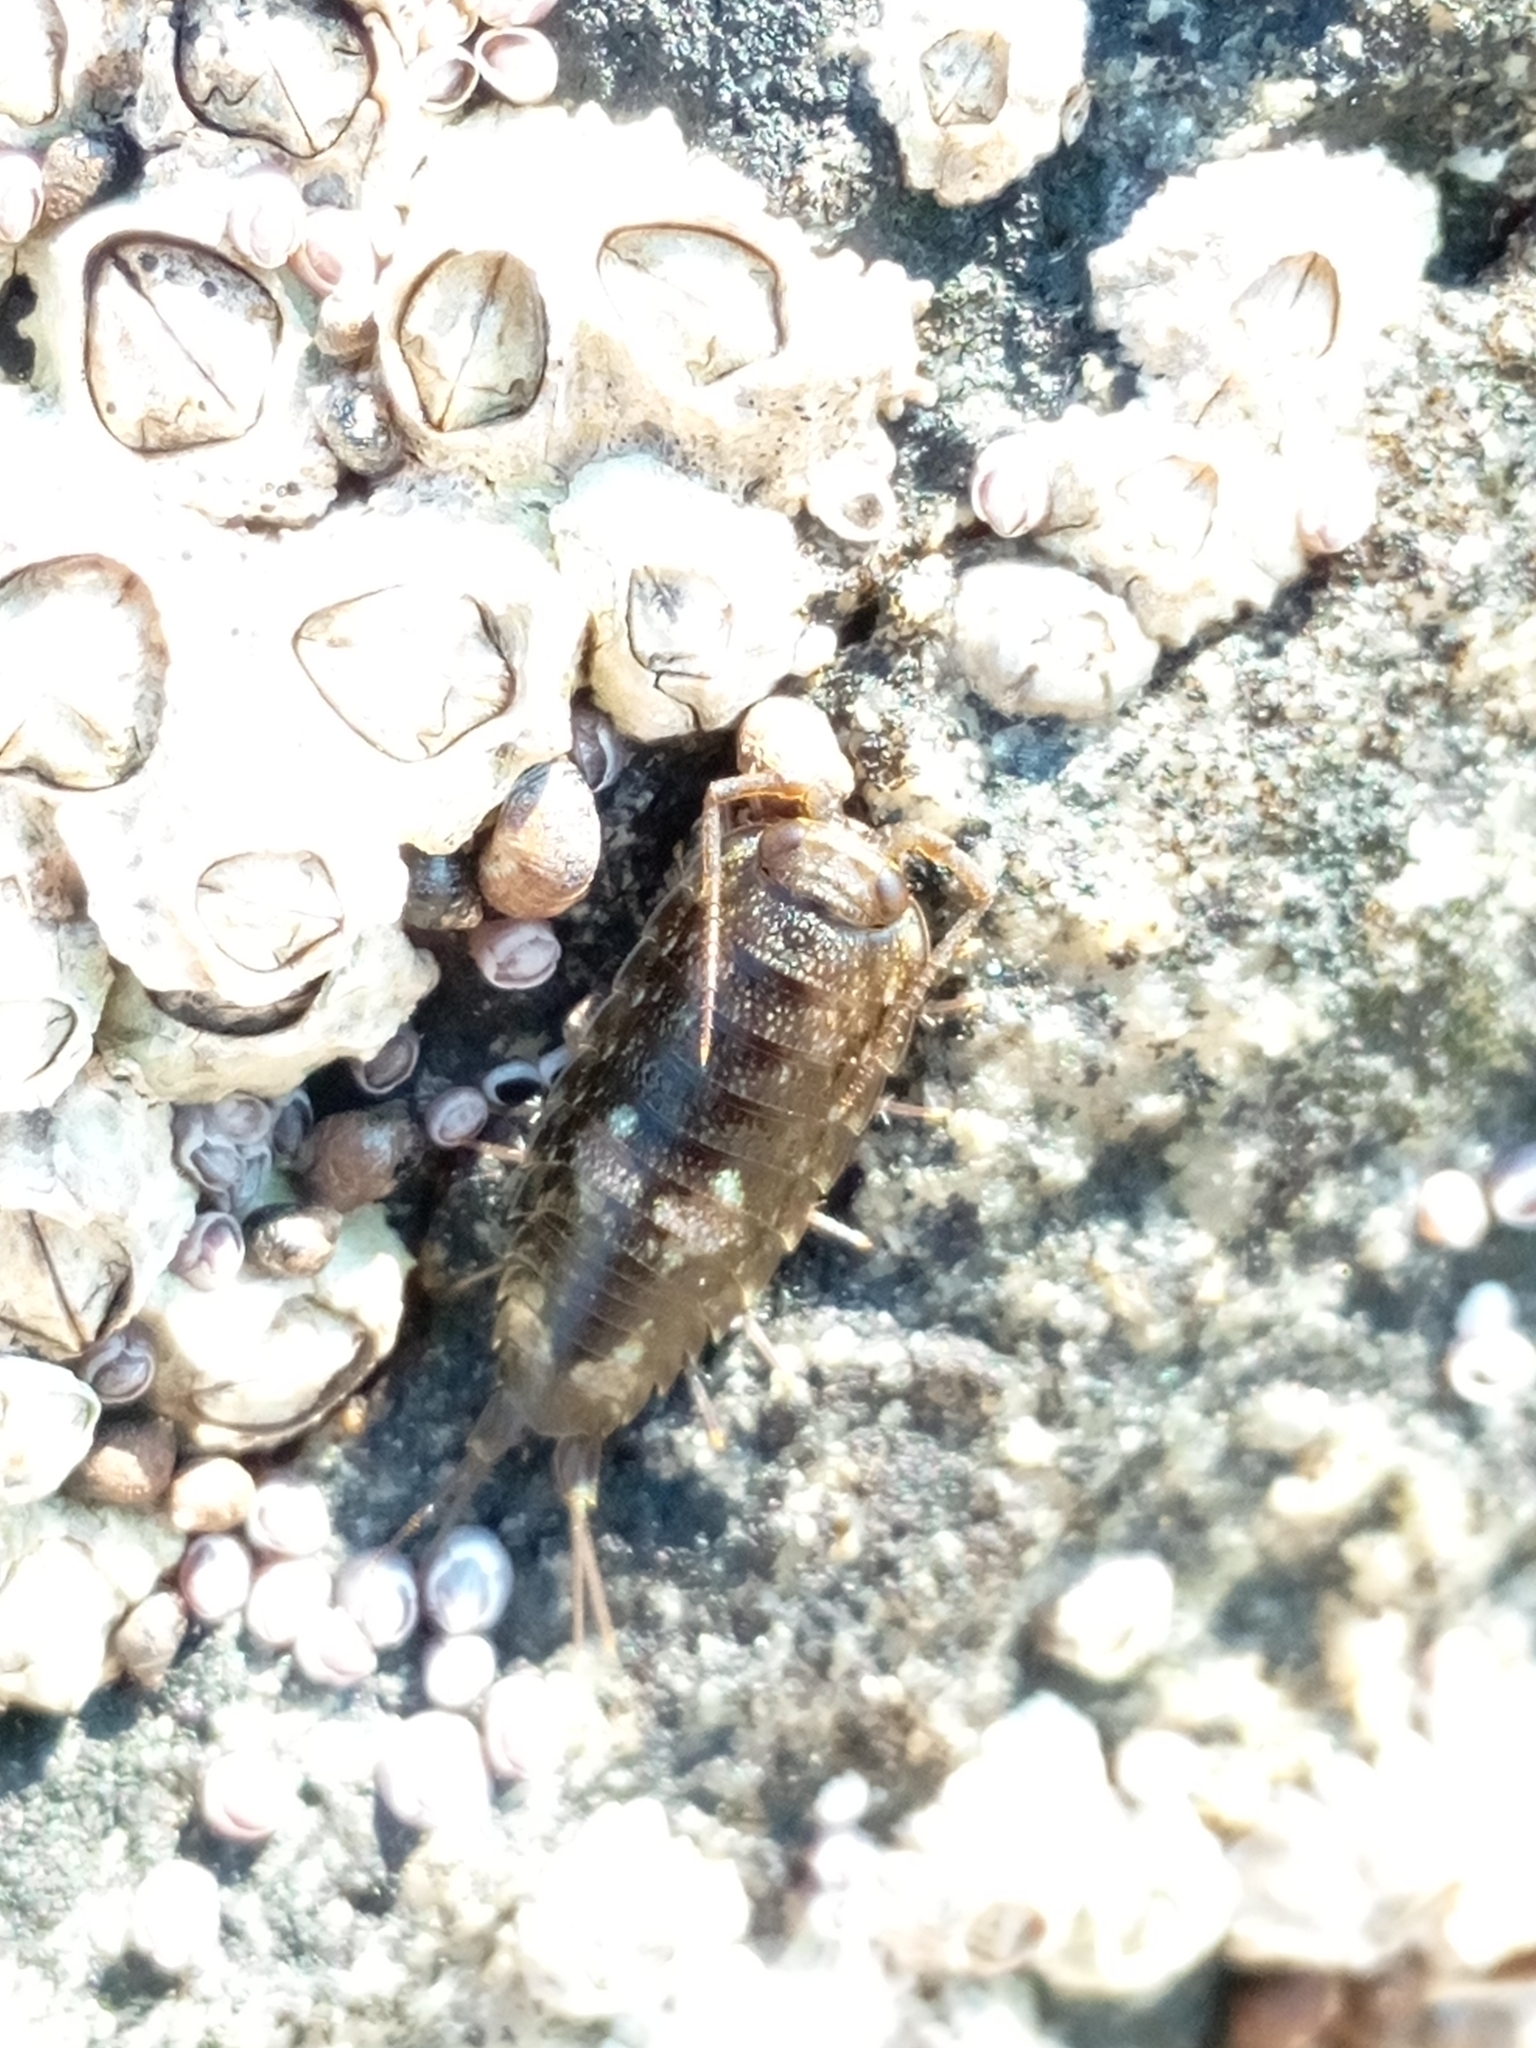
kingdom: Animalia
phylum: Arthropoda
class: Malacostraca
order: Isopoda
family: Ligiidae
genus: Ligia
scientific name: Ligia oceanica
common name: Sea slater
